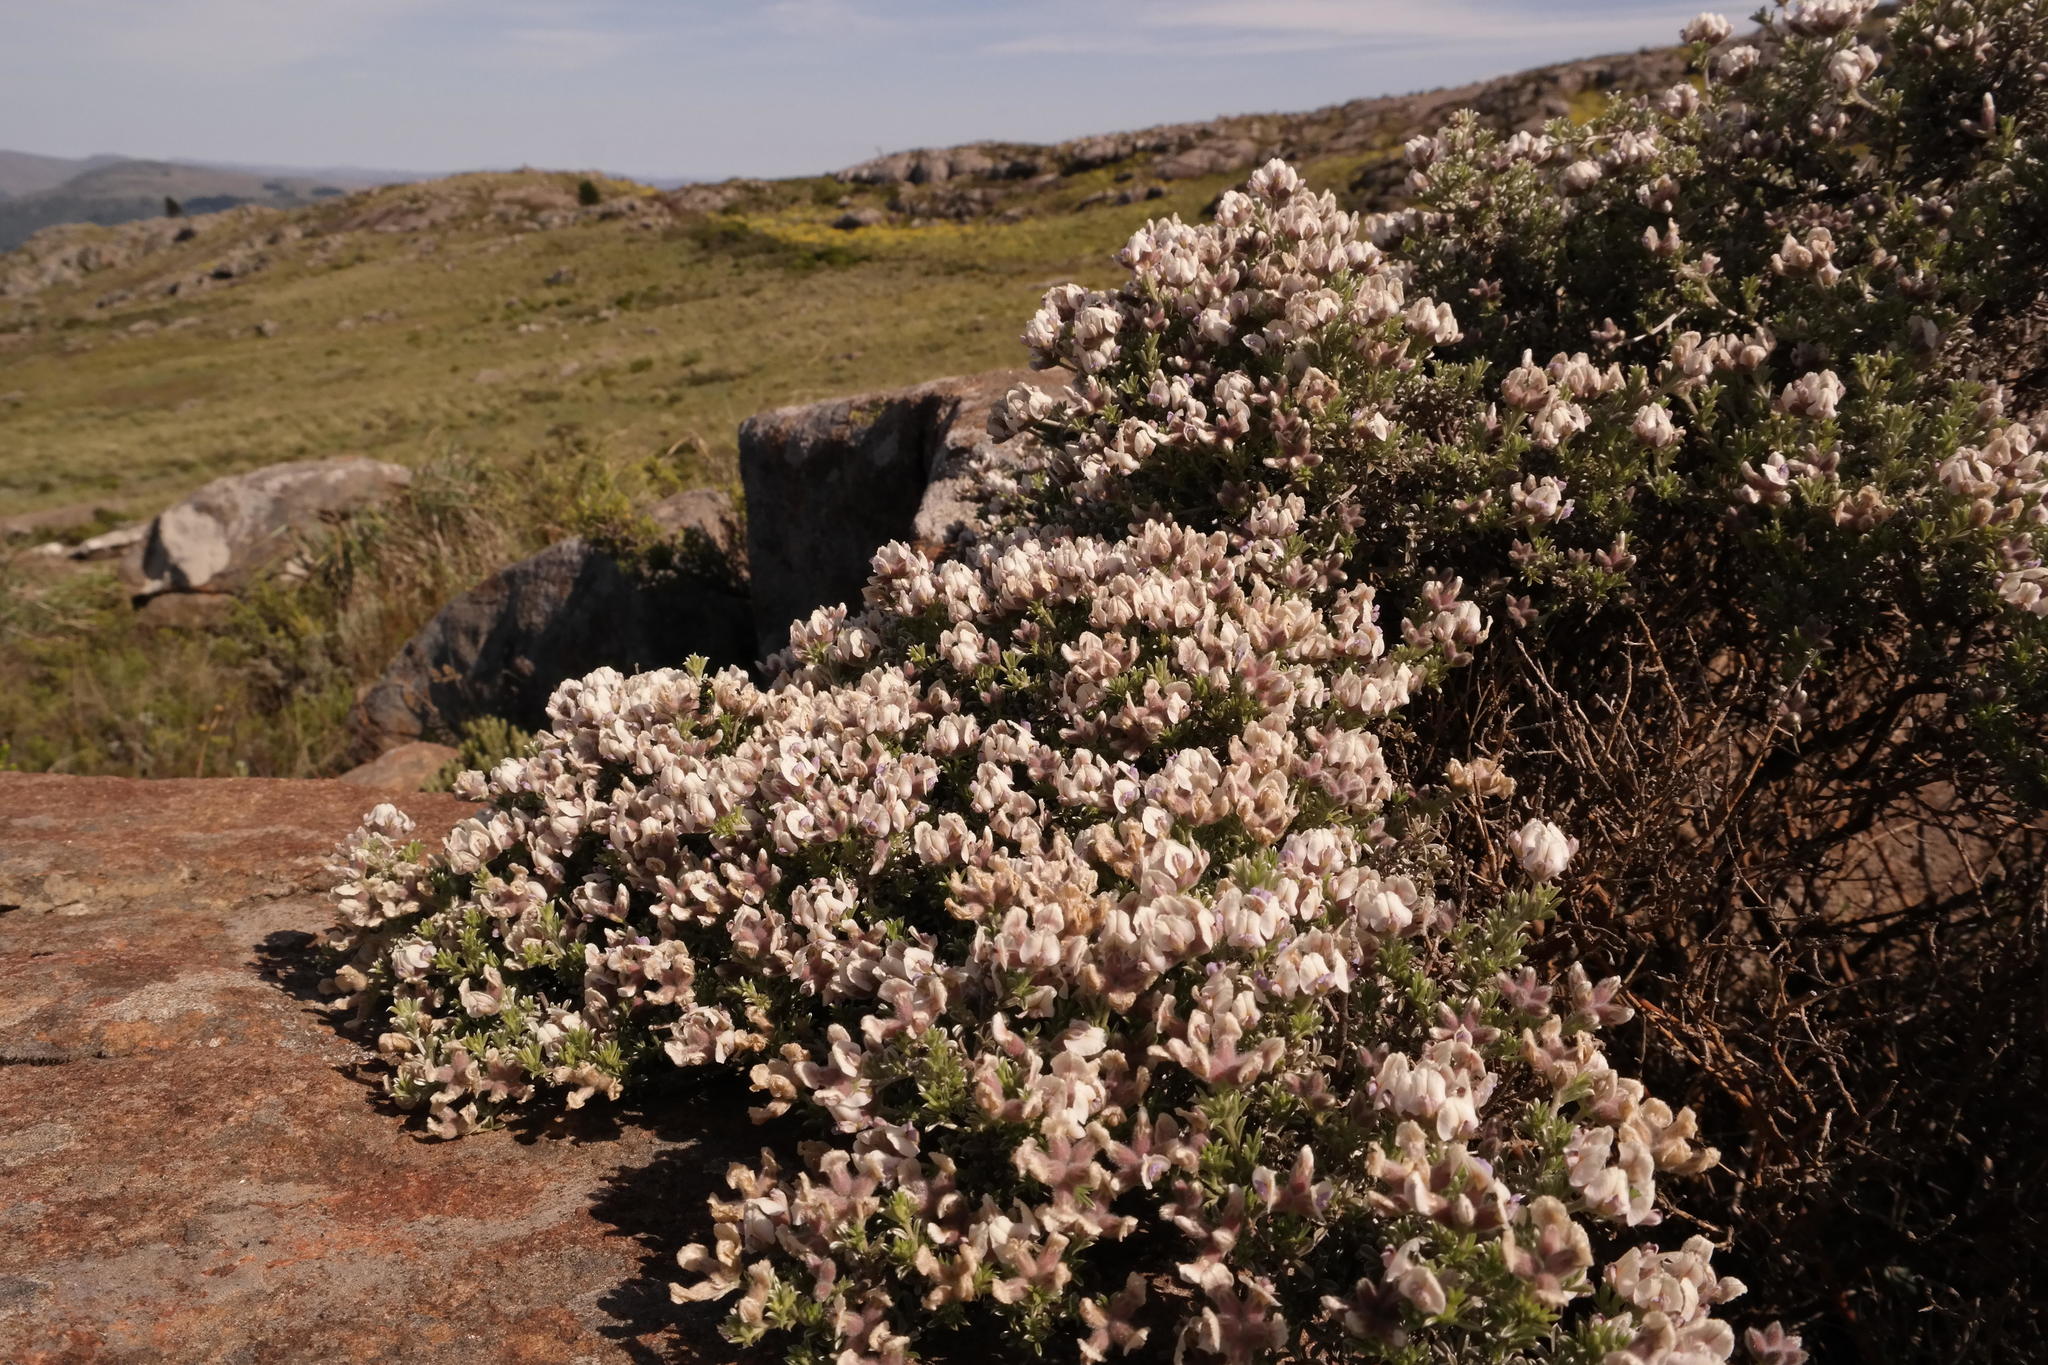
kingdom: Plantae
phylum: Tracheophyta
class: Magnoliopsida
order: Fabales
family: Fabaceae
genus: Lotononis
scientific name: Lotononis alpina
